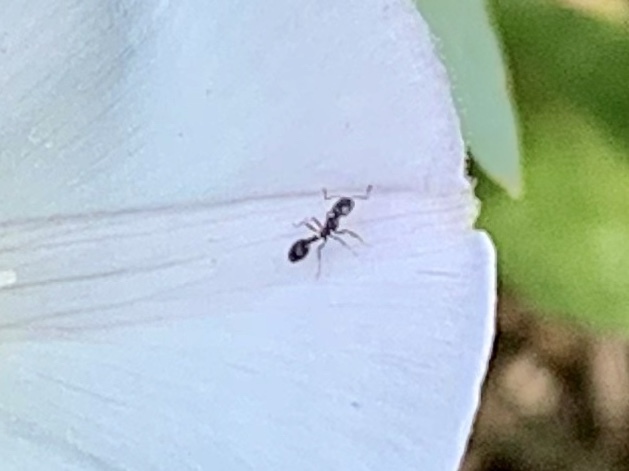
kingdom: Animalia
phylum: Arthropoda
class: Insecta
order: Hymenoptera
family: Formicidae
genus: Monomorium
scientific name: Monomorium minimum
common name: Little black ant
